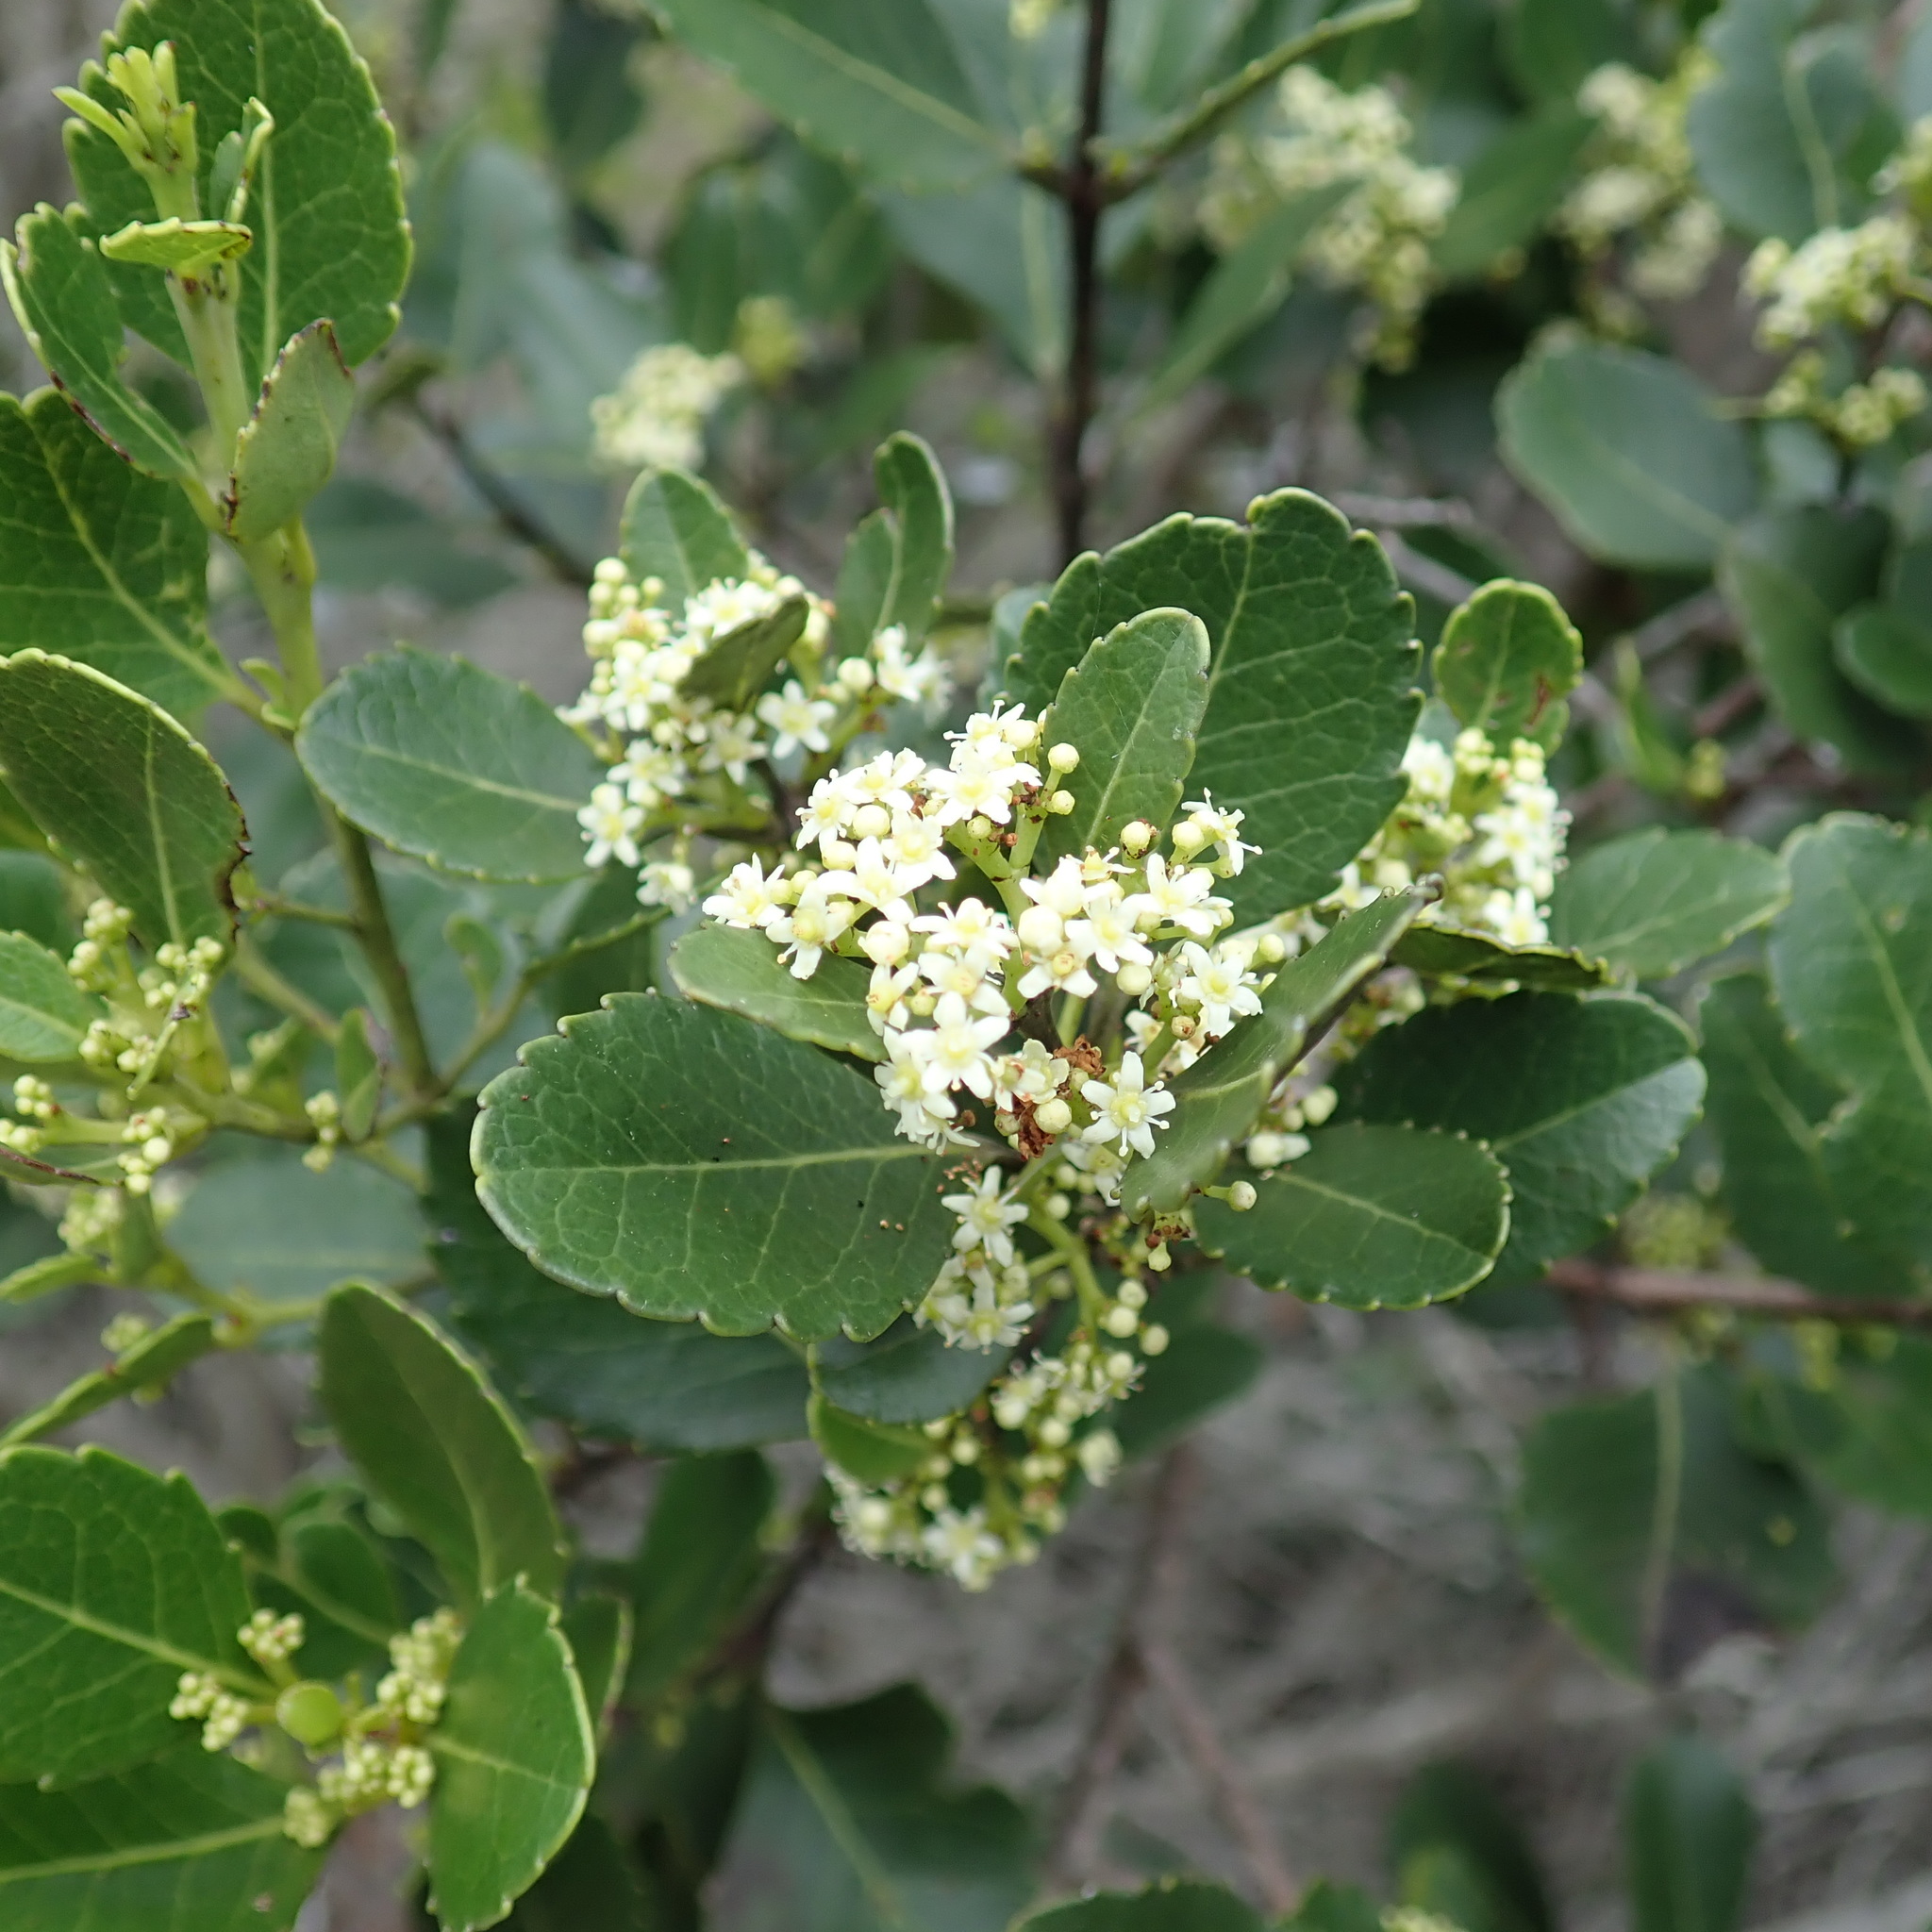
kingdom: Plantae
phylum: Tracheophyta
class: Magnoliopsida
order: Celastrales
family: Celastraceae
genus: Cassine
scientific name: Cassine peragua
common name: Cape saffron
